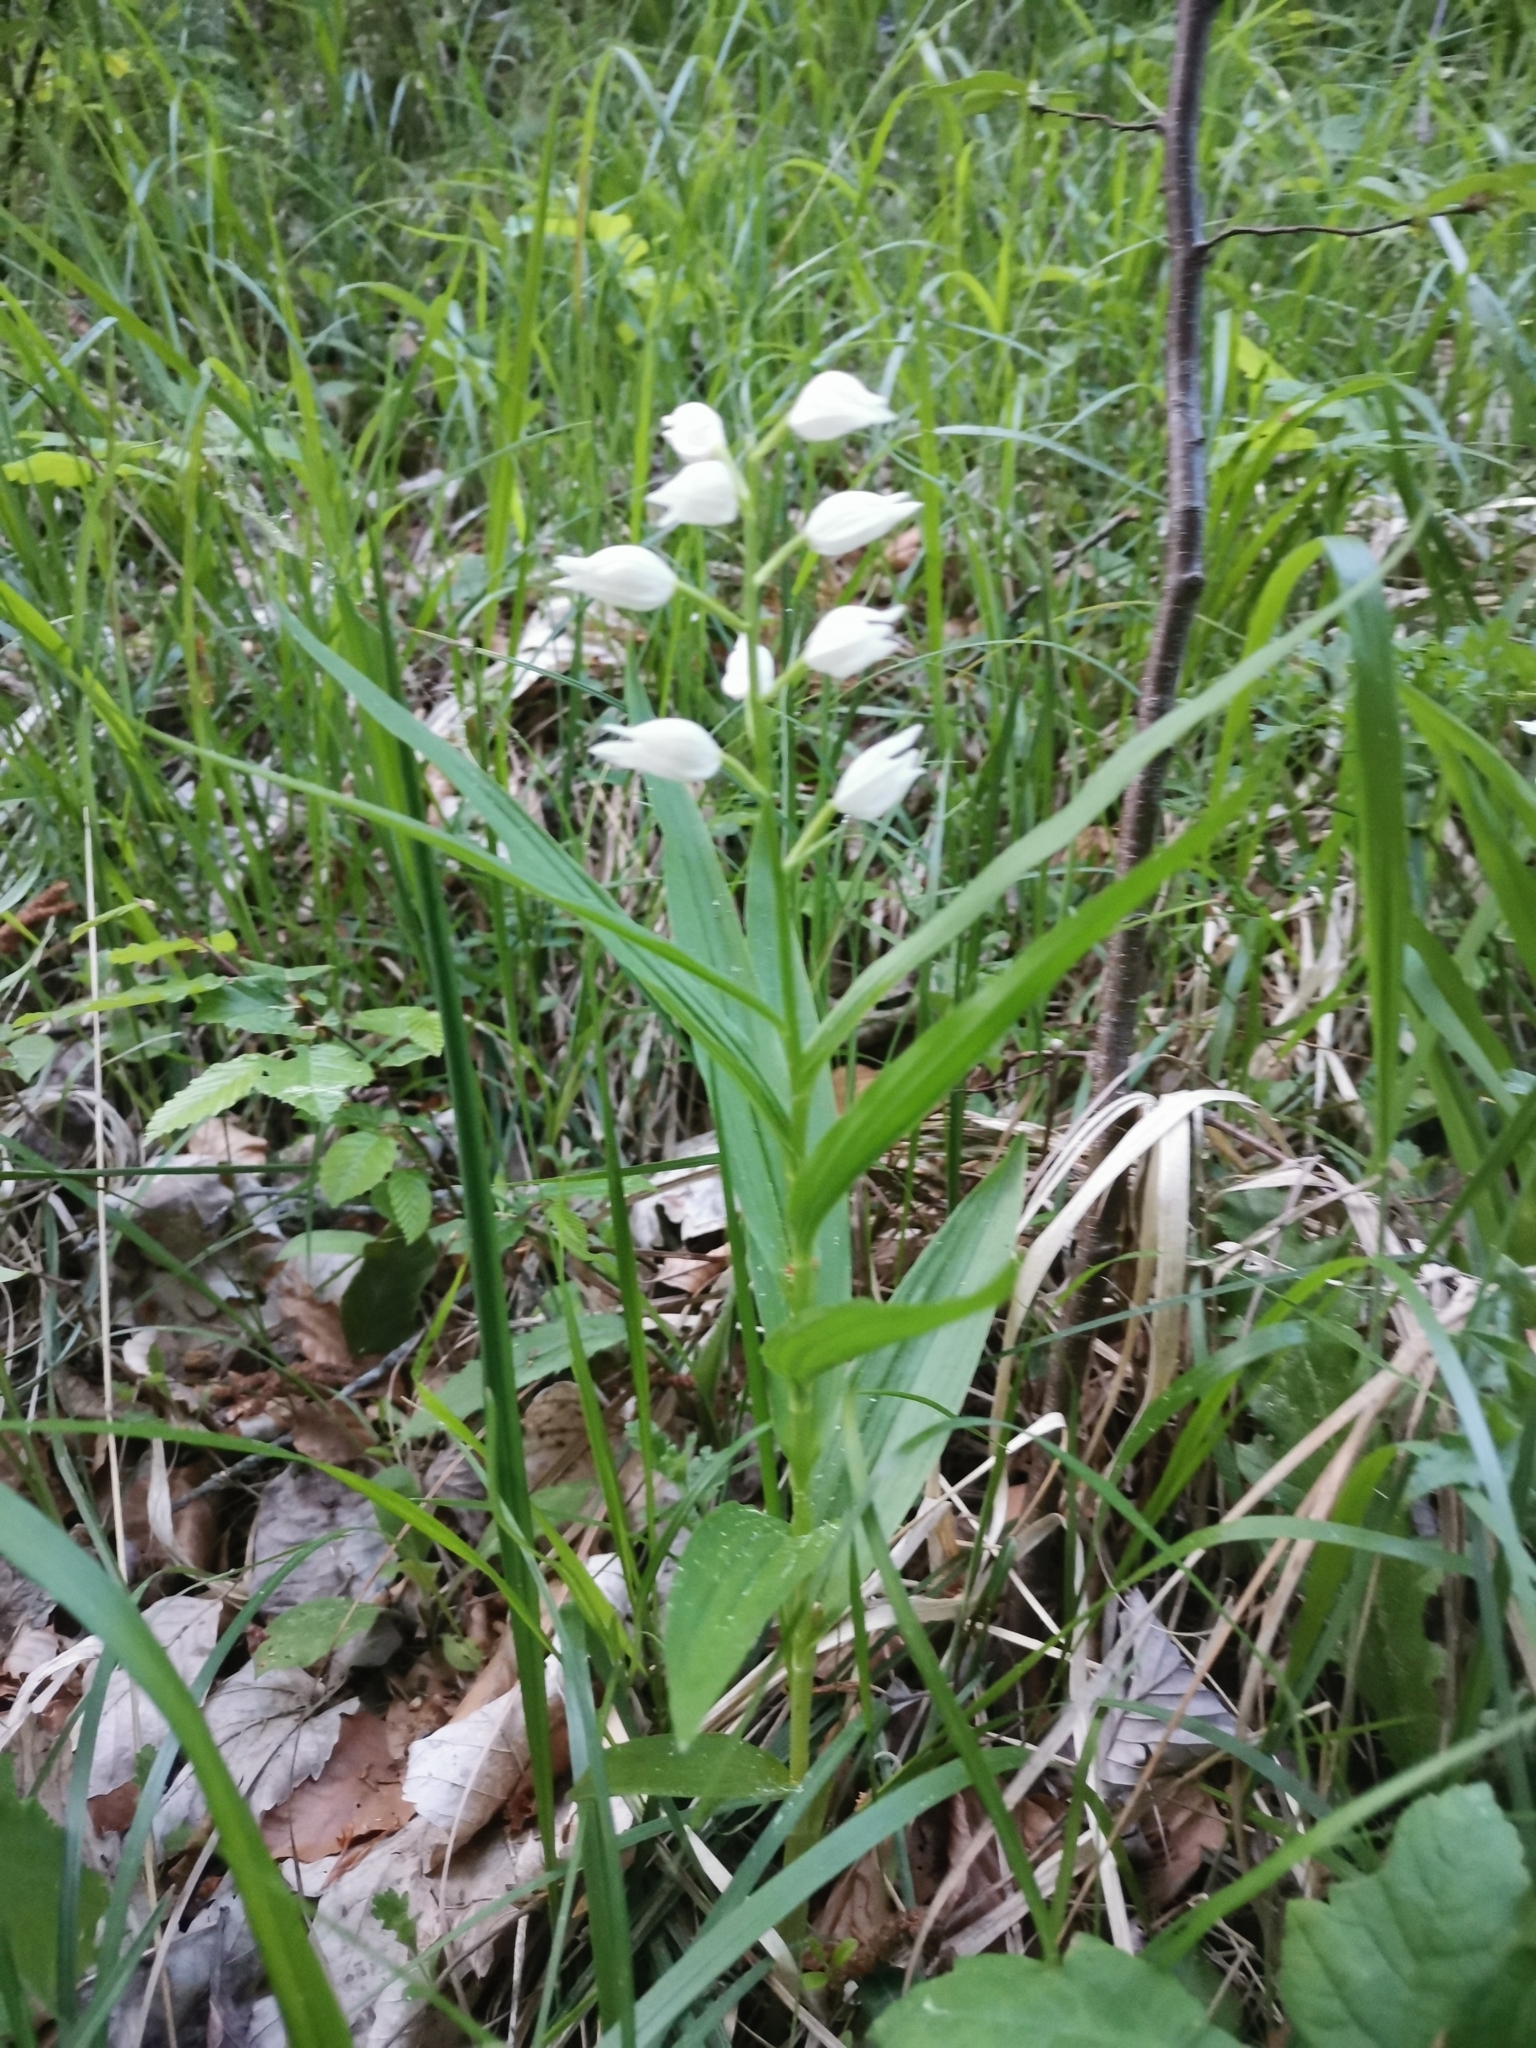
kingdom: Plantae
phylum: Tracheophyta
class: Liliopsida
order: Asparagales
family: Orchidaceae
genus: Cephalanthera
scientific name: Cephalanthera longifolia
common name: Narrow-leaved helleborine
